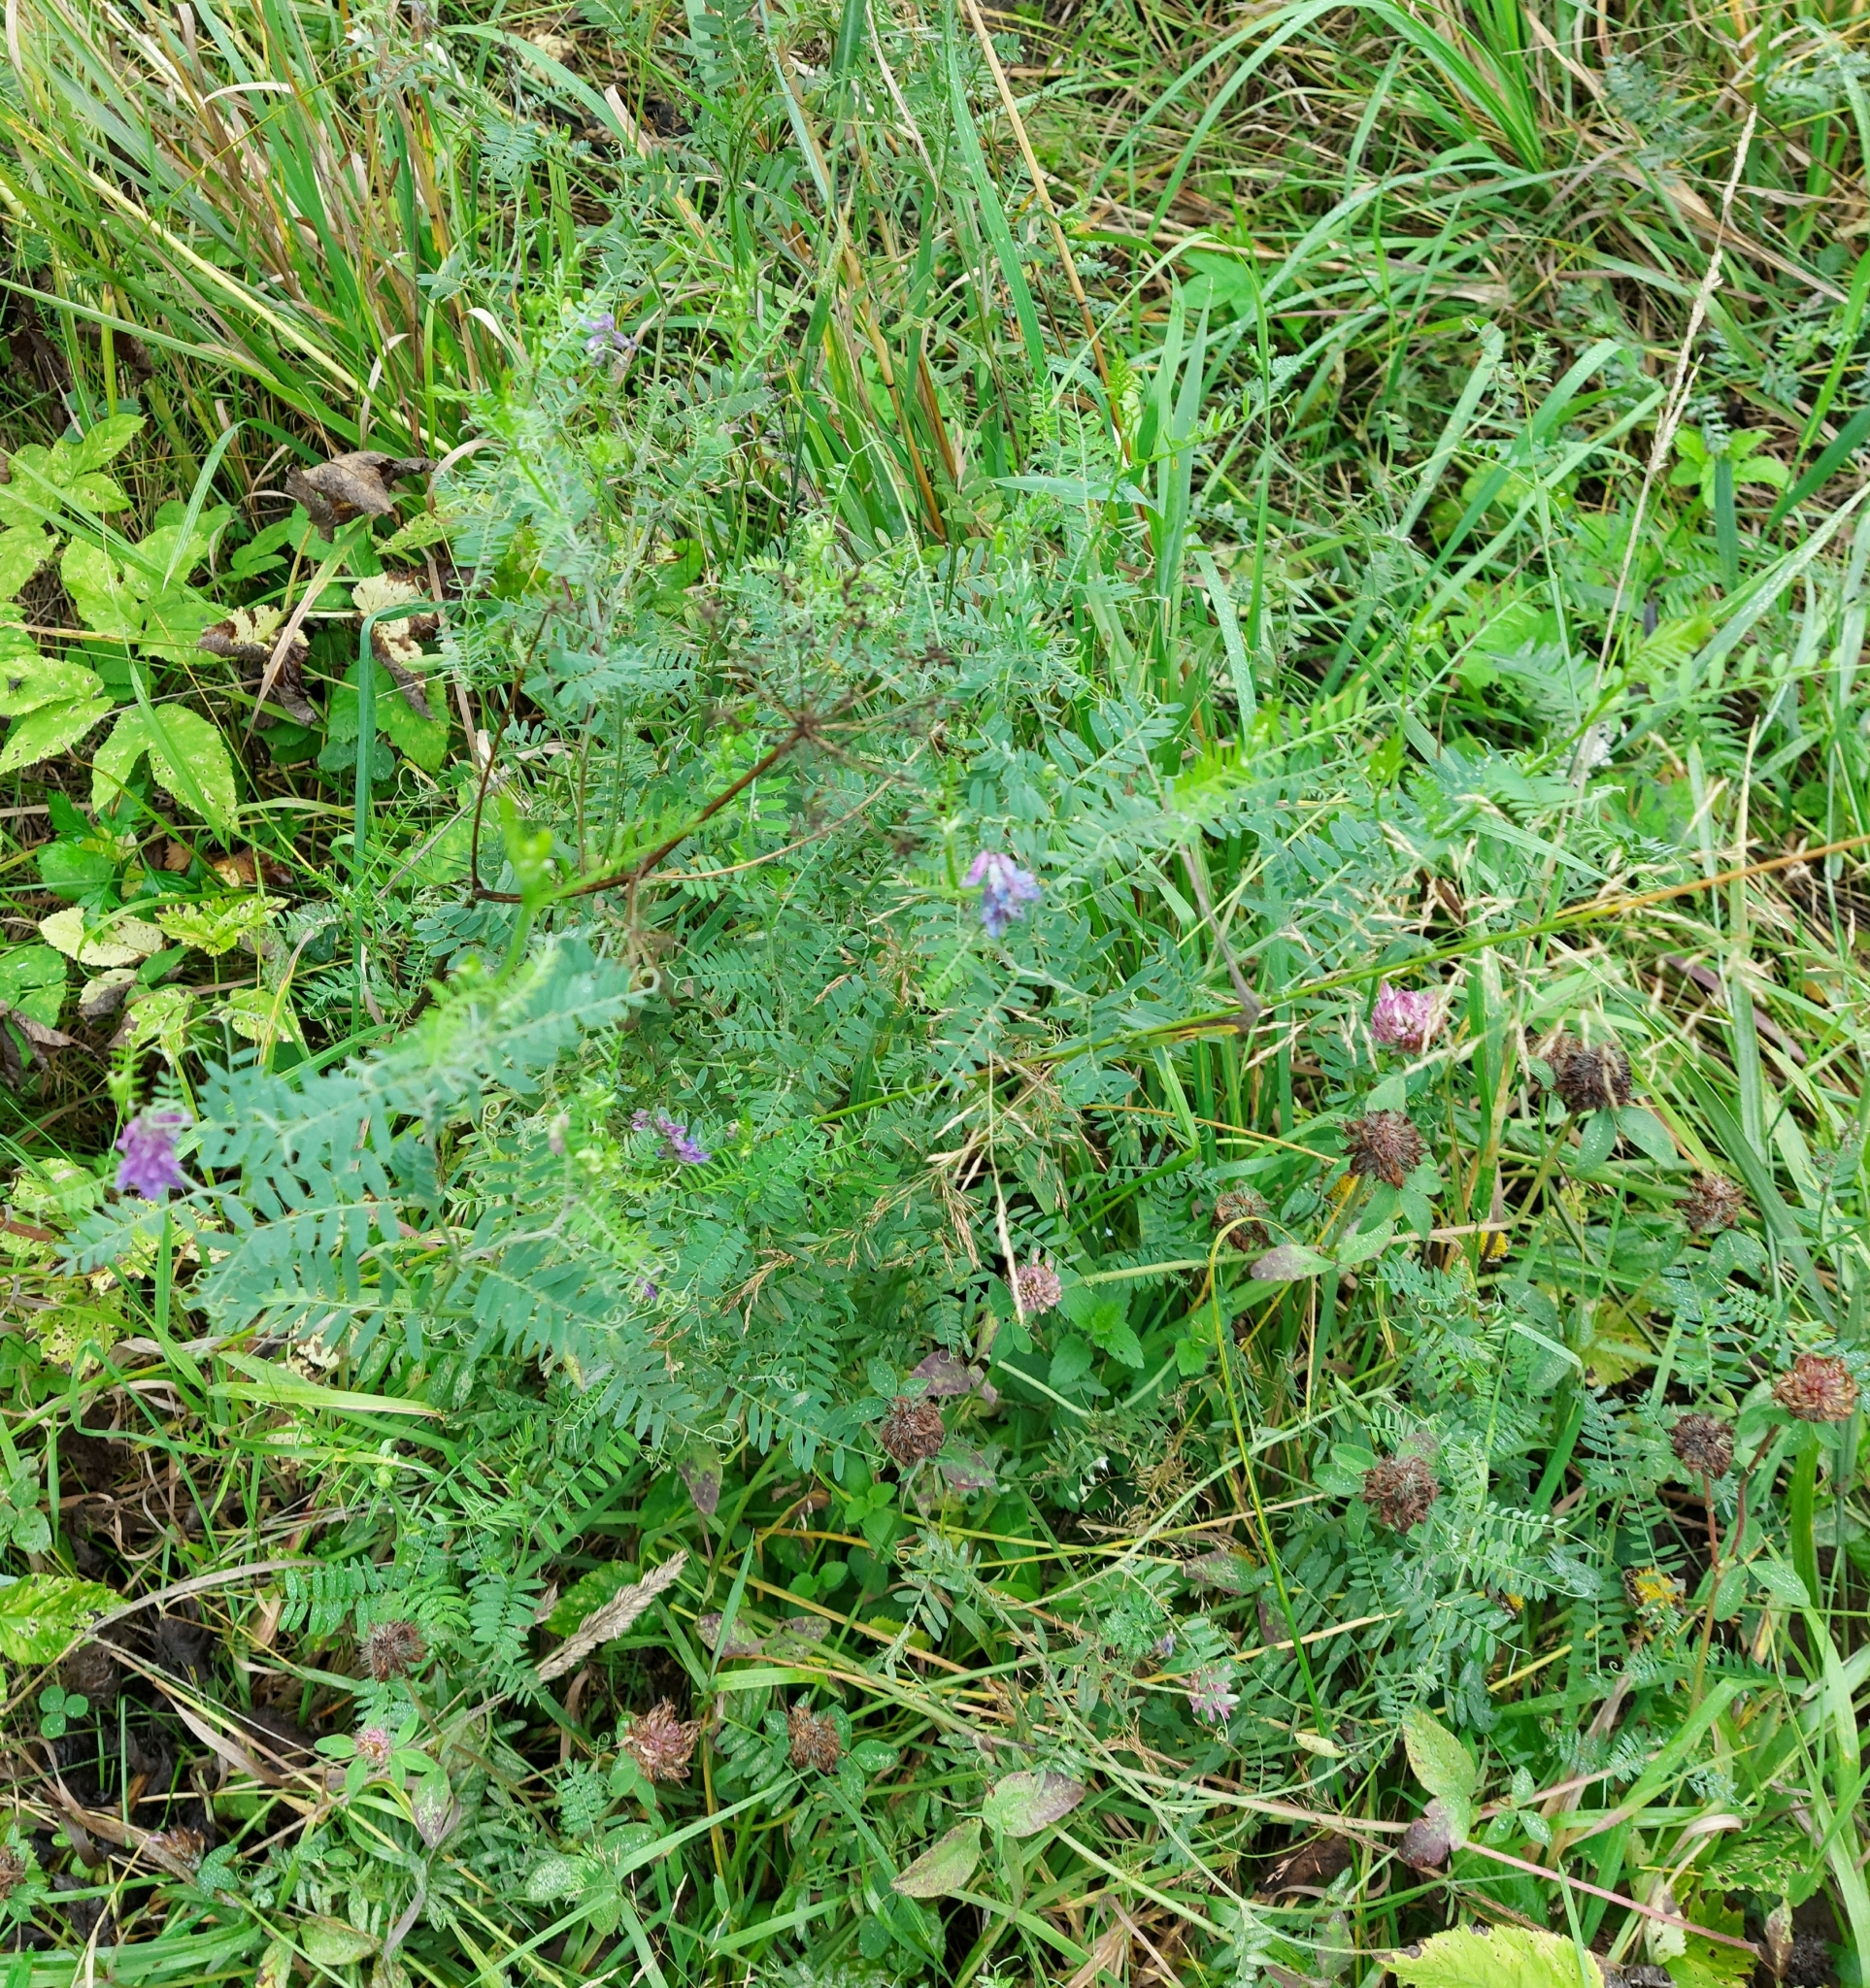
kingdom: Plantae
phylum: Tracheophyta
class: Magnoliopsida
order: Fabales
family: Fabaceae
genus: Vicia
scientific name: Vicia cracca
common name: Bird vetch
